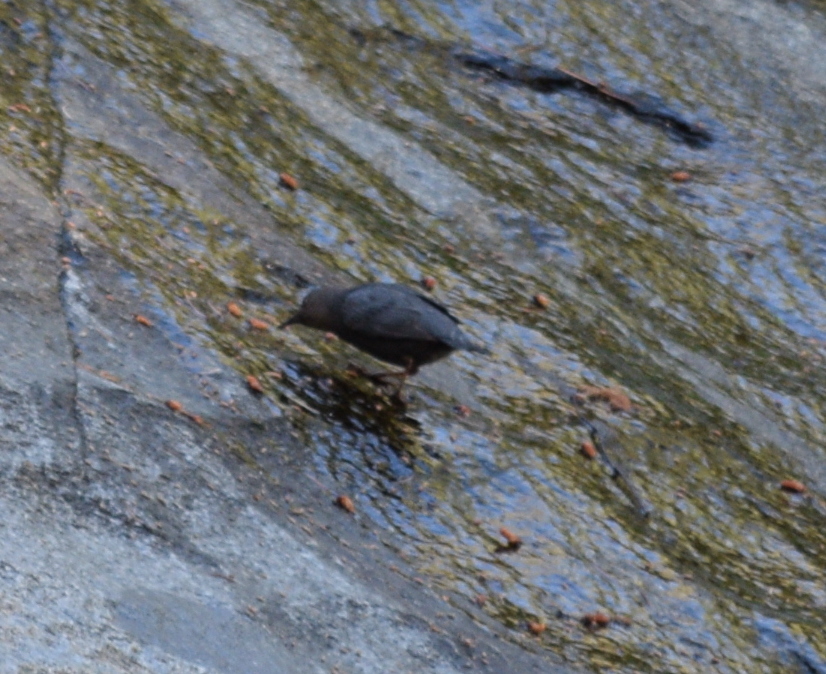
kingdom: Animalia
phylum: Chordata
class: Aves
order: Passeriformes
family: Cinclidae
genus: Cinclus
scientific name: Cinclus mexicanus
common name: American dipper
